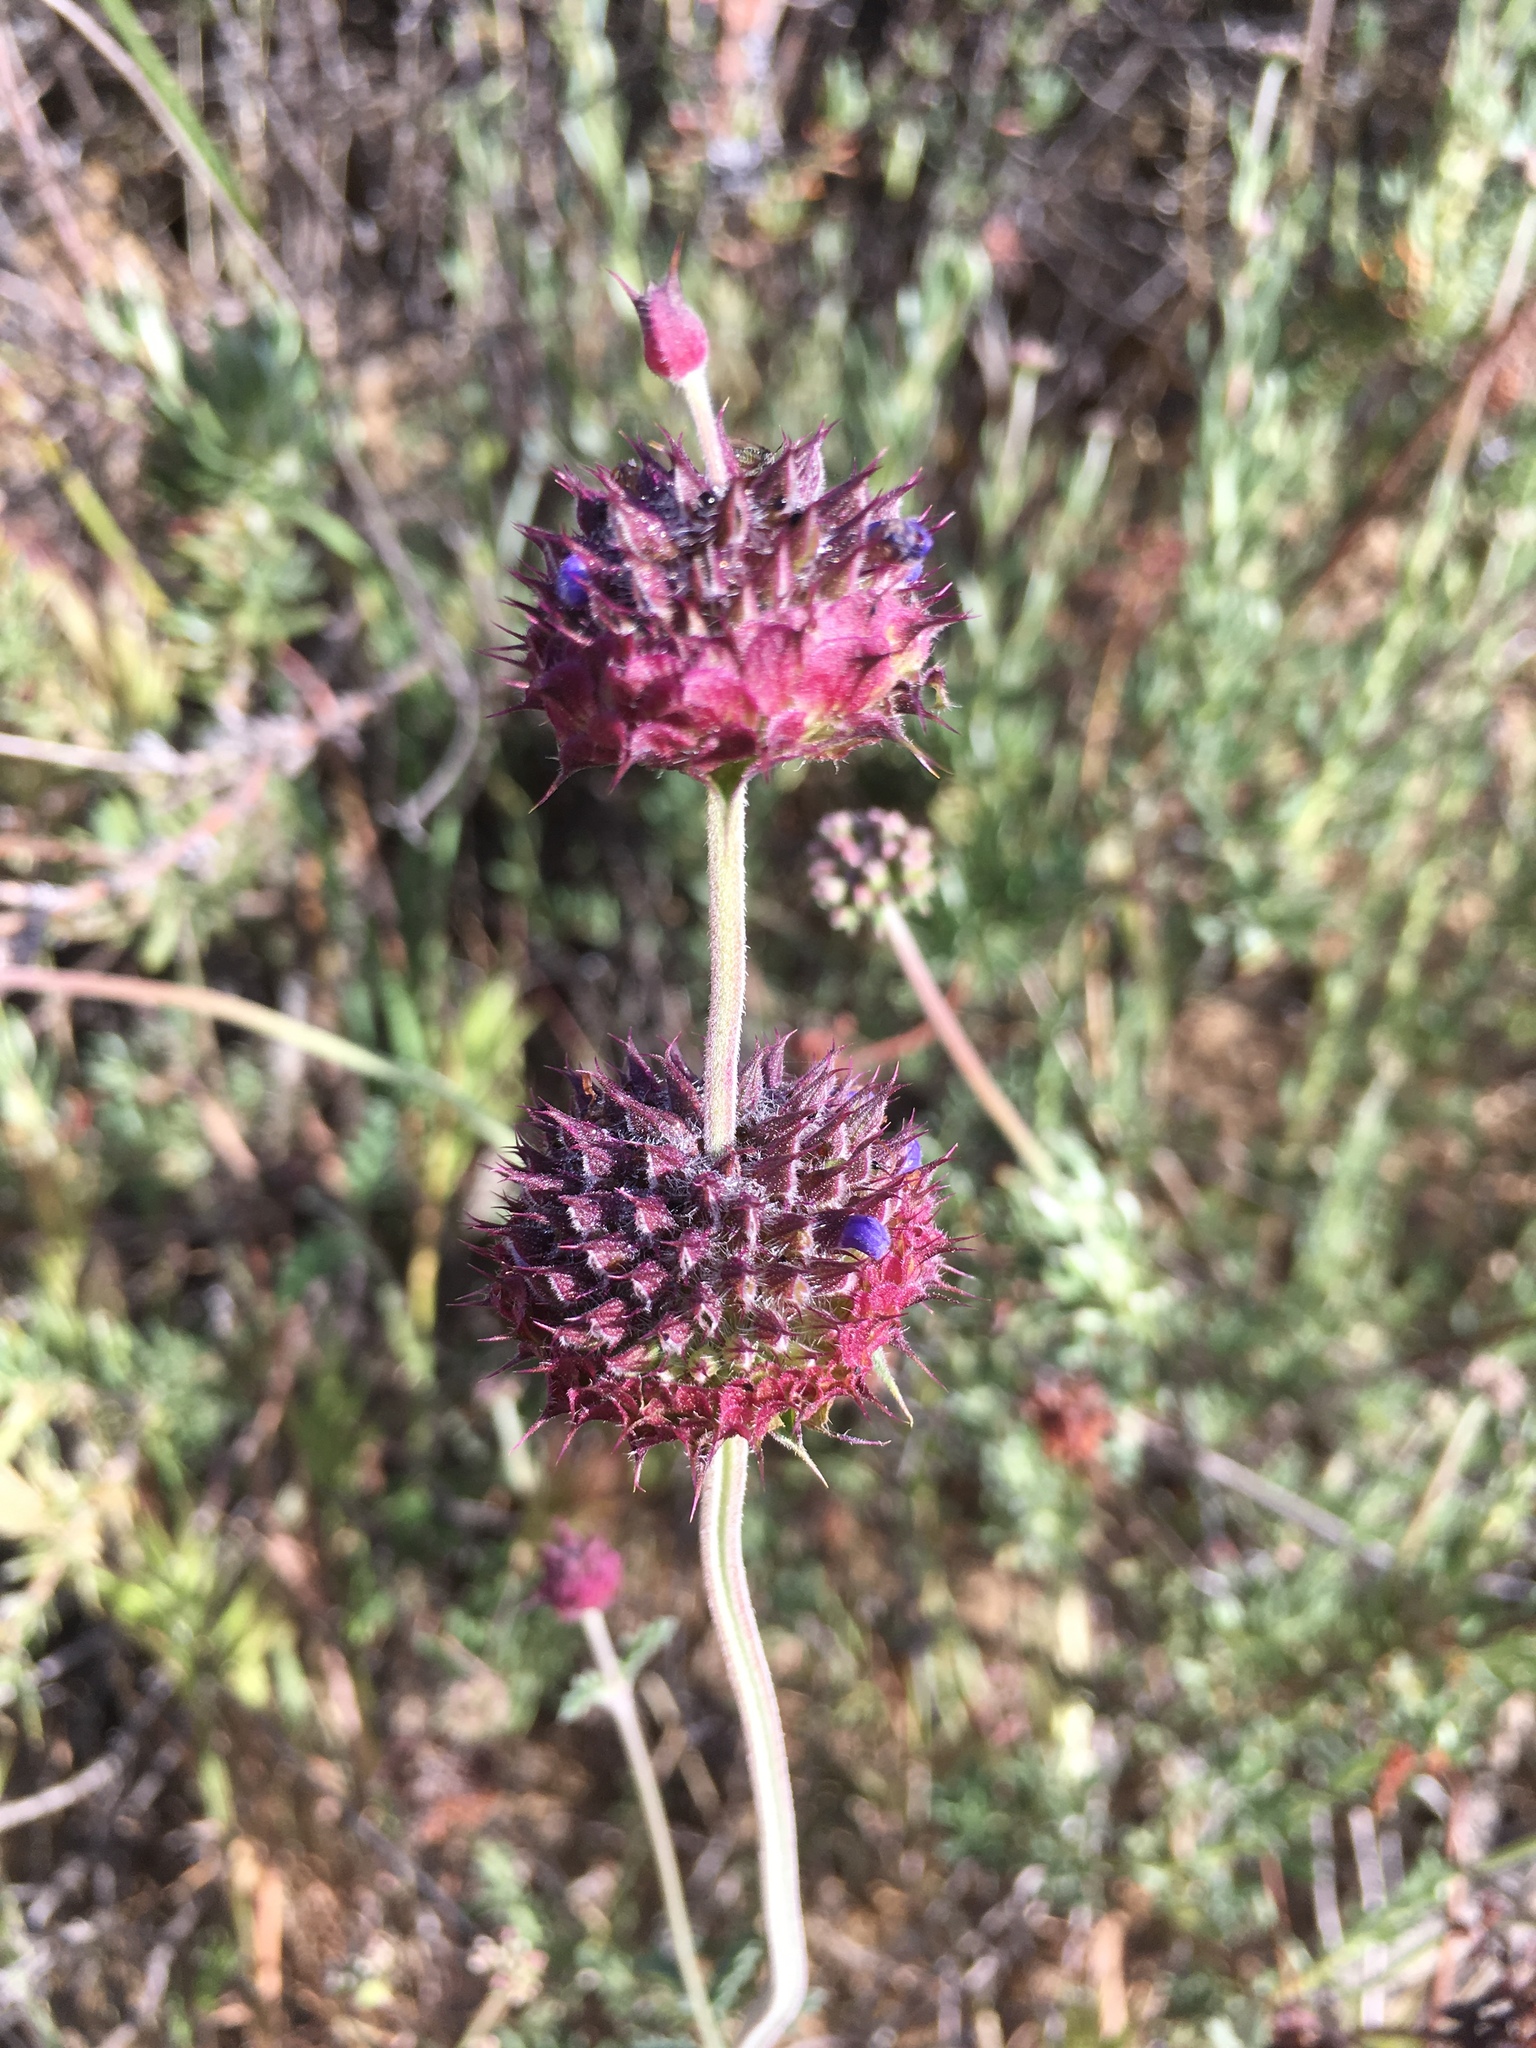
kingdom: Plantae
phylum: Tracheophyta
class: Magnoliopsida
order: Lamiales
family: Lamiaceae
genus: Salvia
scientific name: Salvia columbariae
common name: Chia
